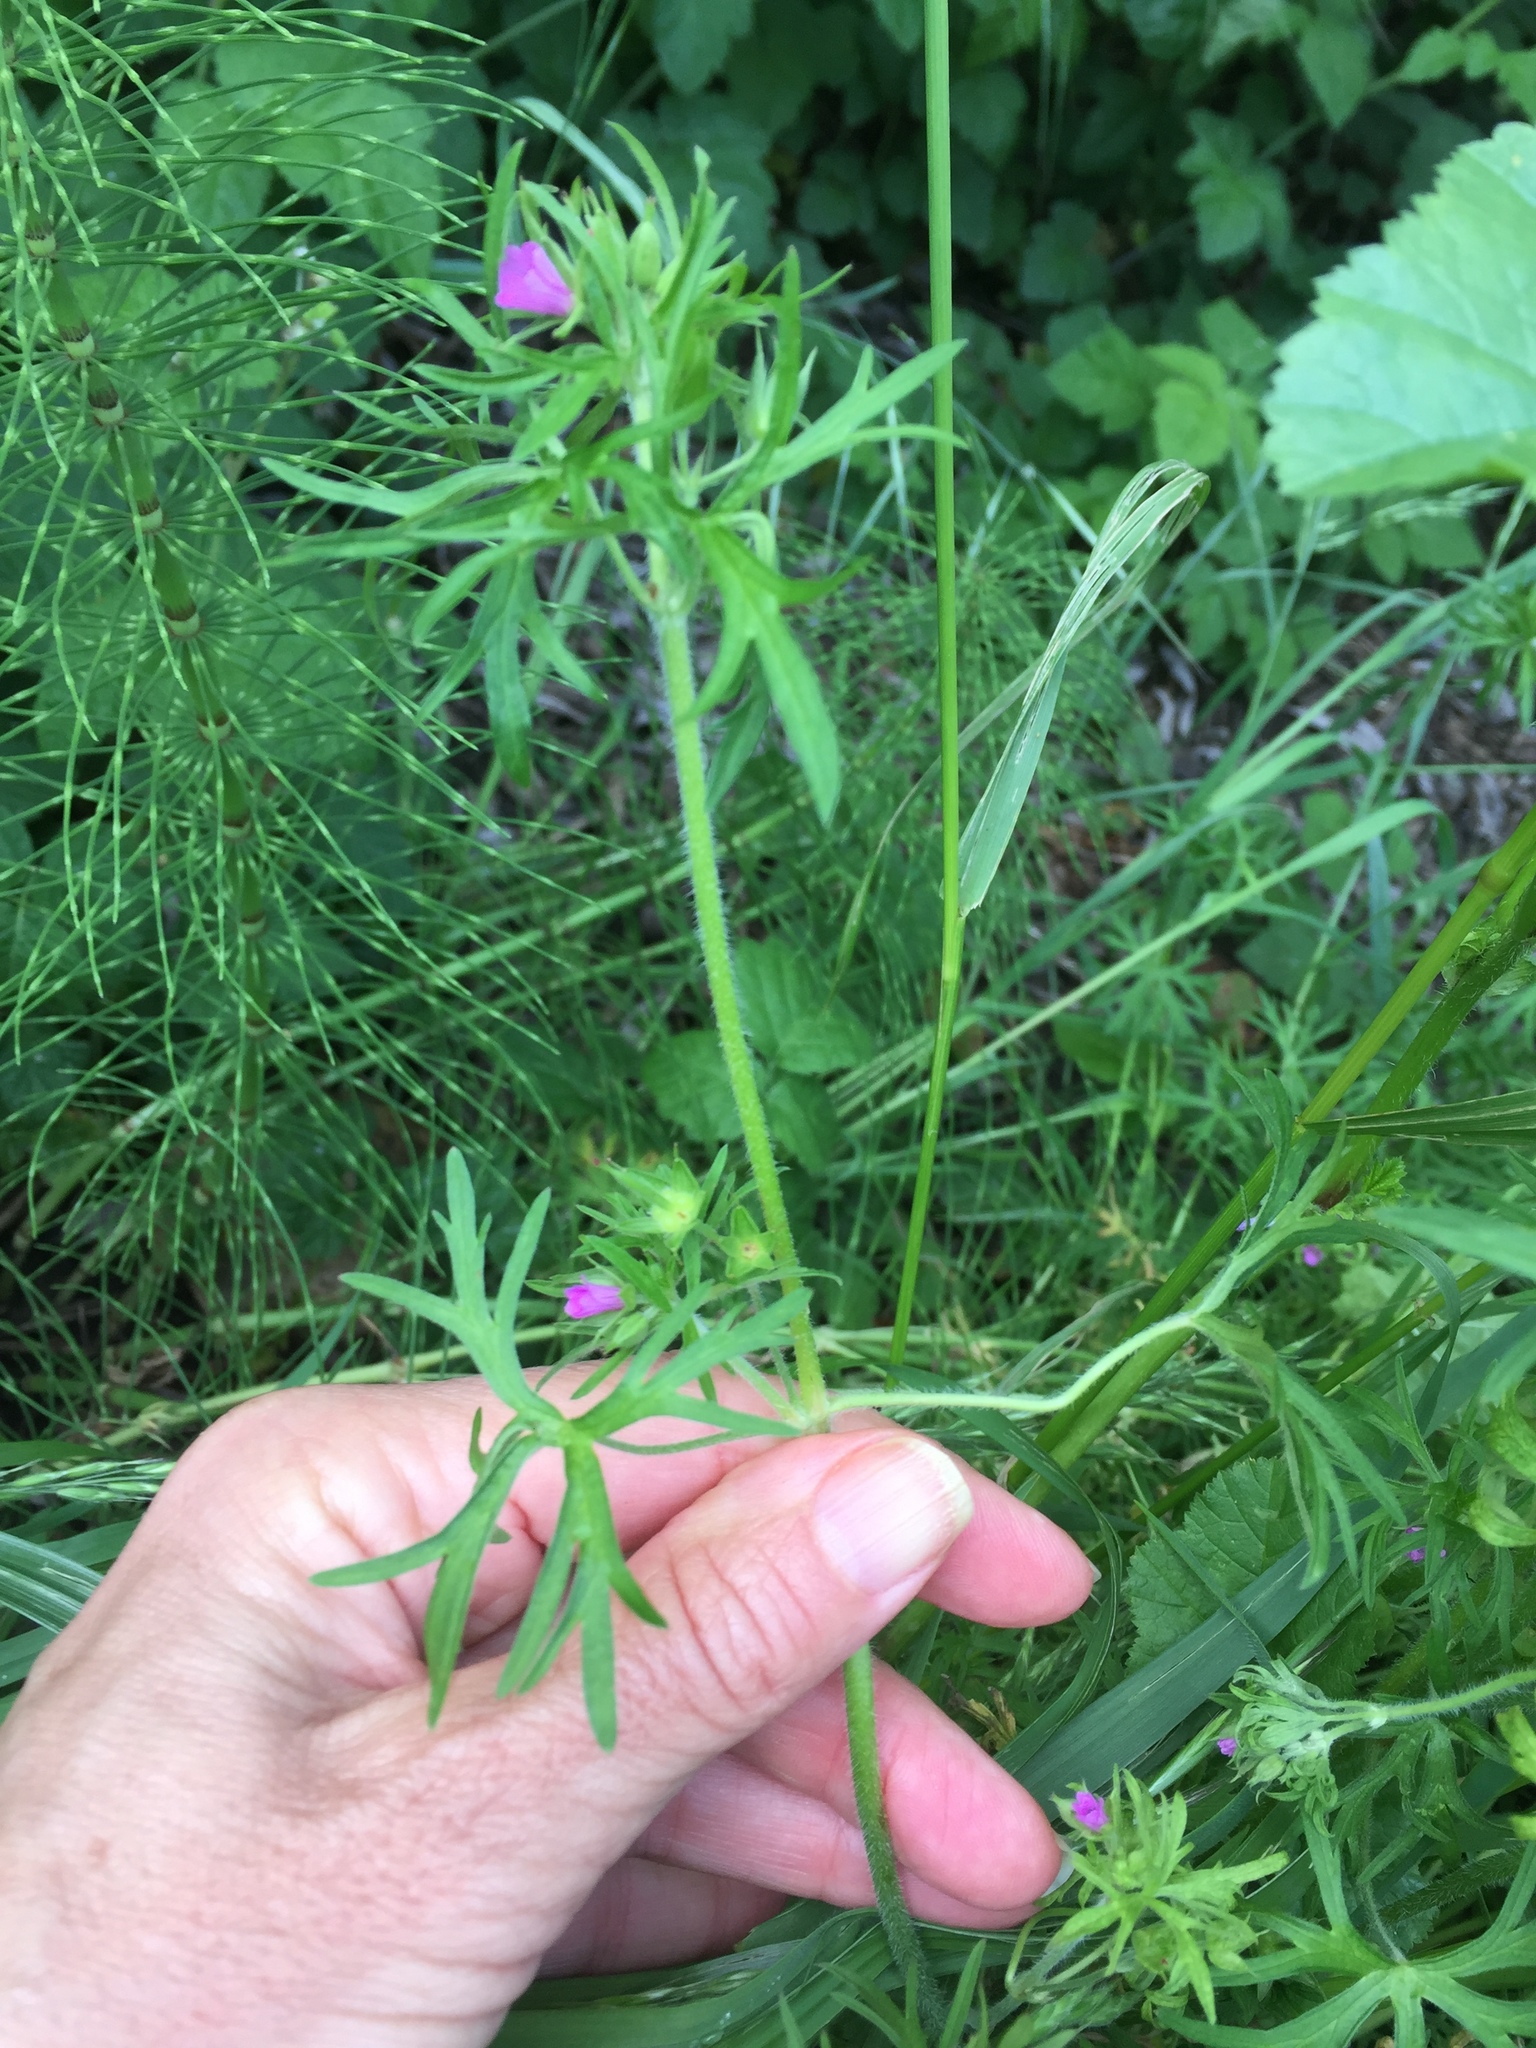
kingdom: Plantae
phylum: Tracheophyta
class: Magnoliopsida
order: Geraniales
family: Geraniaceae
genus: Geranium
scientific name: Geranium dissectum
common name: Cut-leaved crane's-bill
